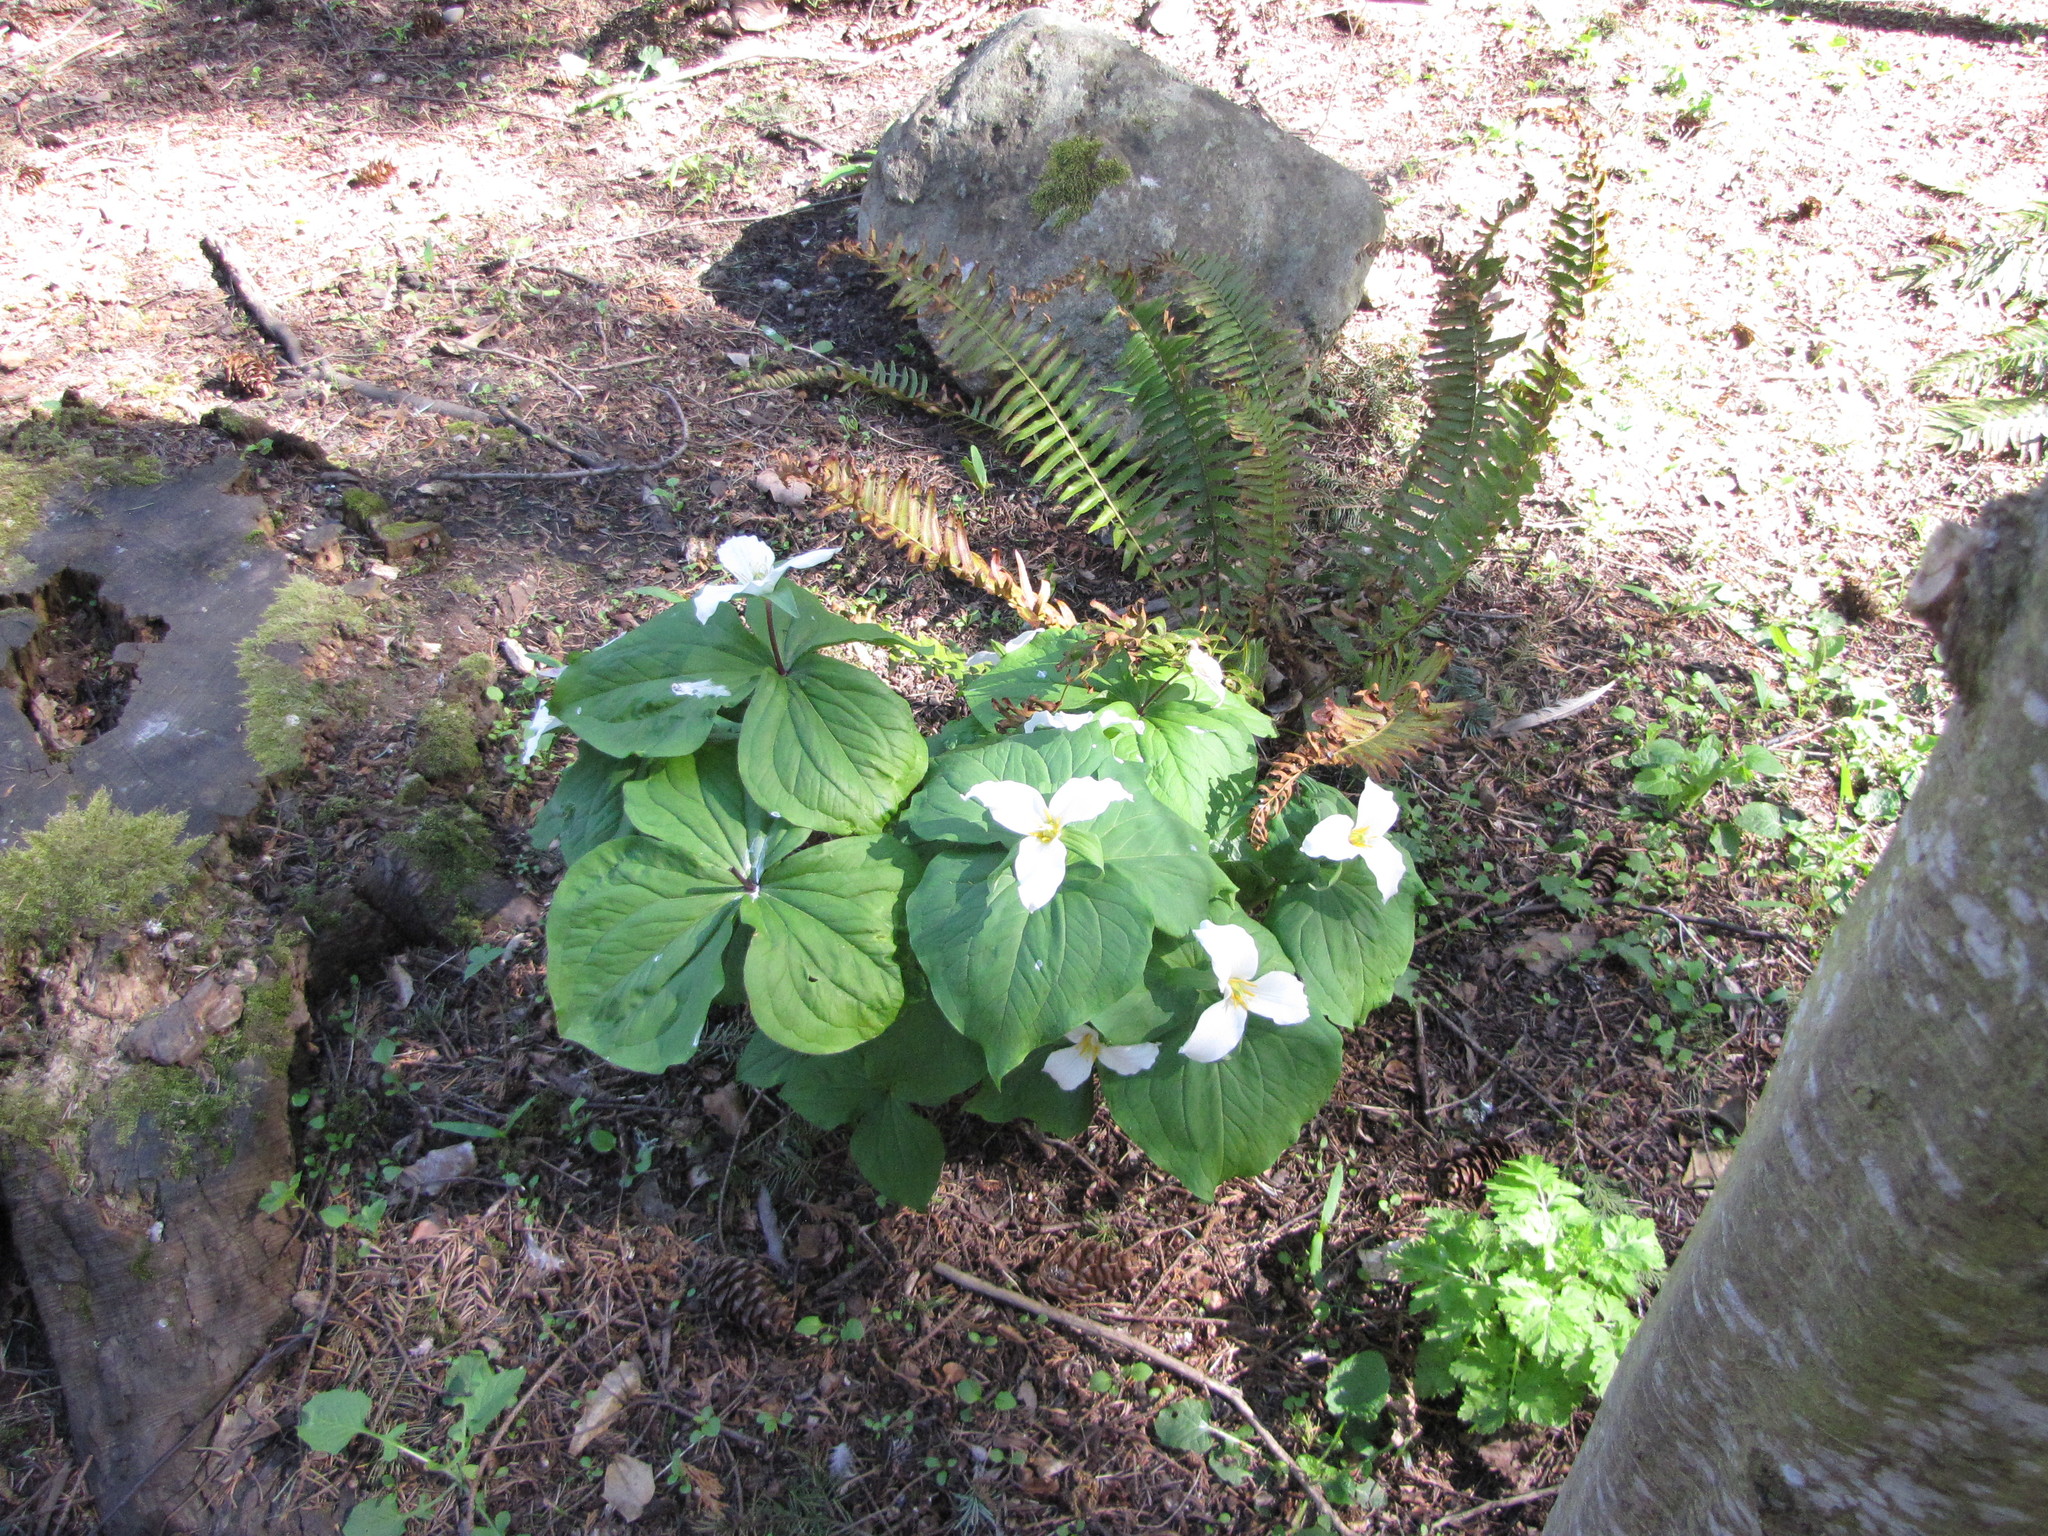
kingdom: Plantae
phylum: Tracheophyta
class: Liliopsida
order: Liliales
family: Melanthiaceae
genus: Trillium
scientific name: Trillium ovatum
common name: Pacific trillium
